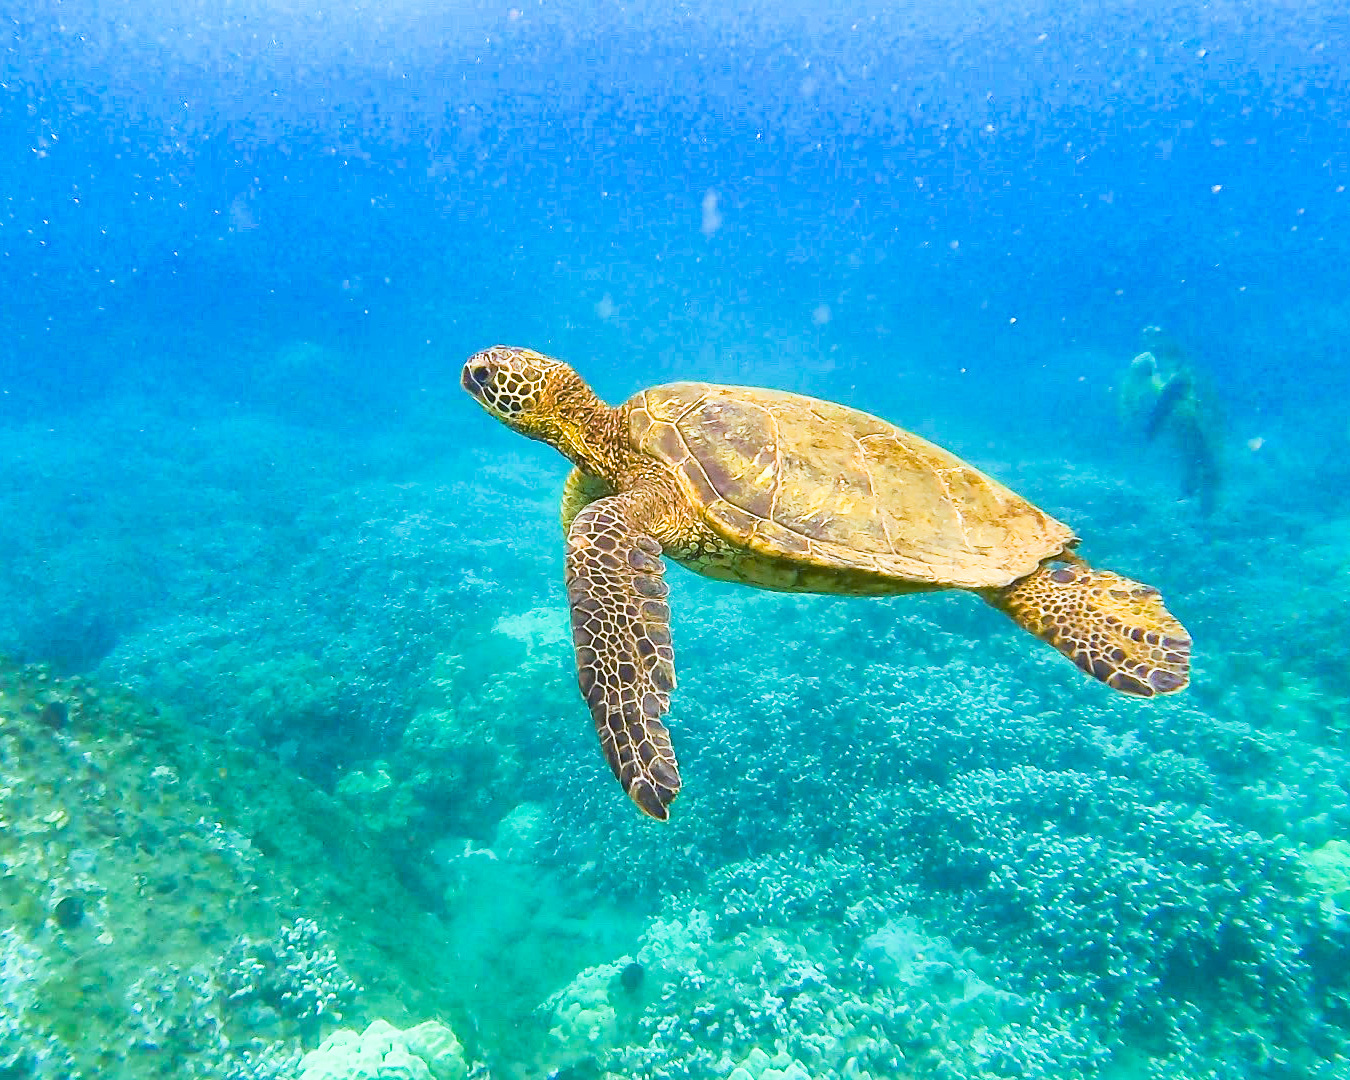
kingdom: Animalia
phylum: Chordata
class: Testudines
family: Cheloniidae
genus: Chelonia
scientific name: Chelonia mydas
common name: Green turtle
